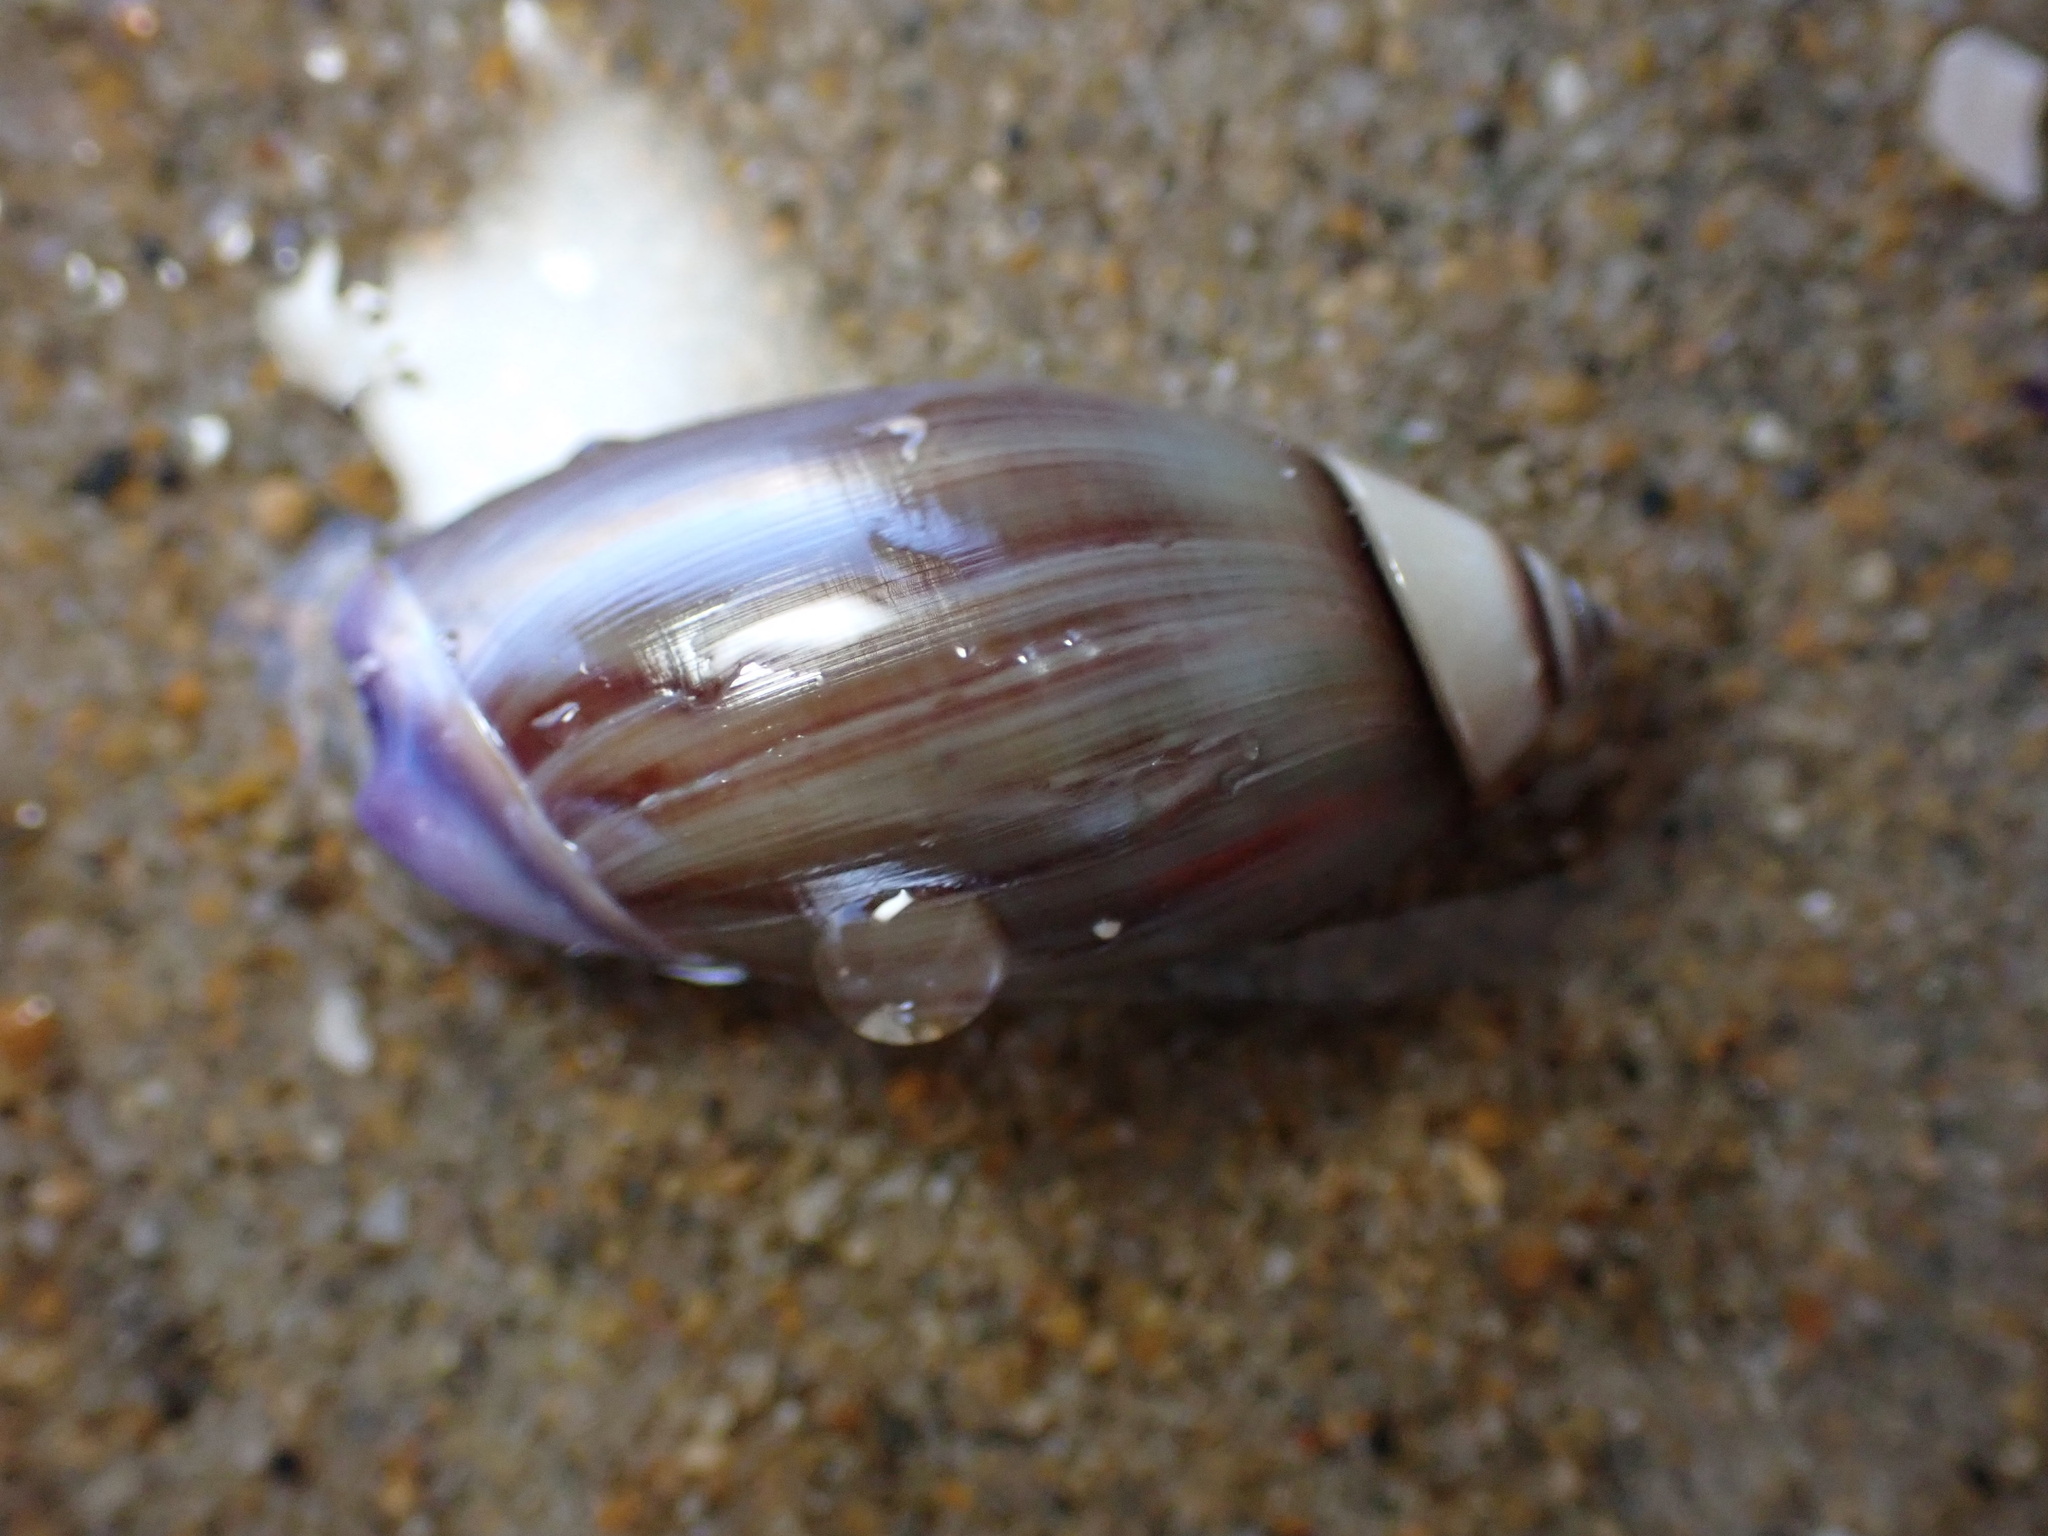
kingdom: Animalia
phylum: Mollusca
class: Gastropoda
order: Neogastropoda
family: Olividae
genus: Callianax
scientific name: Callianax biplicata
